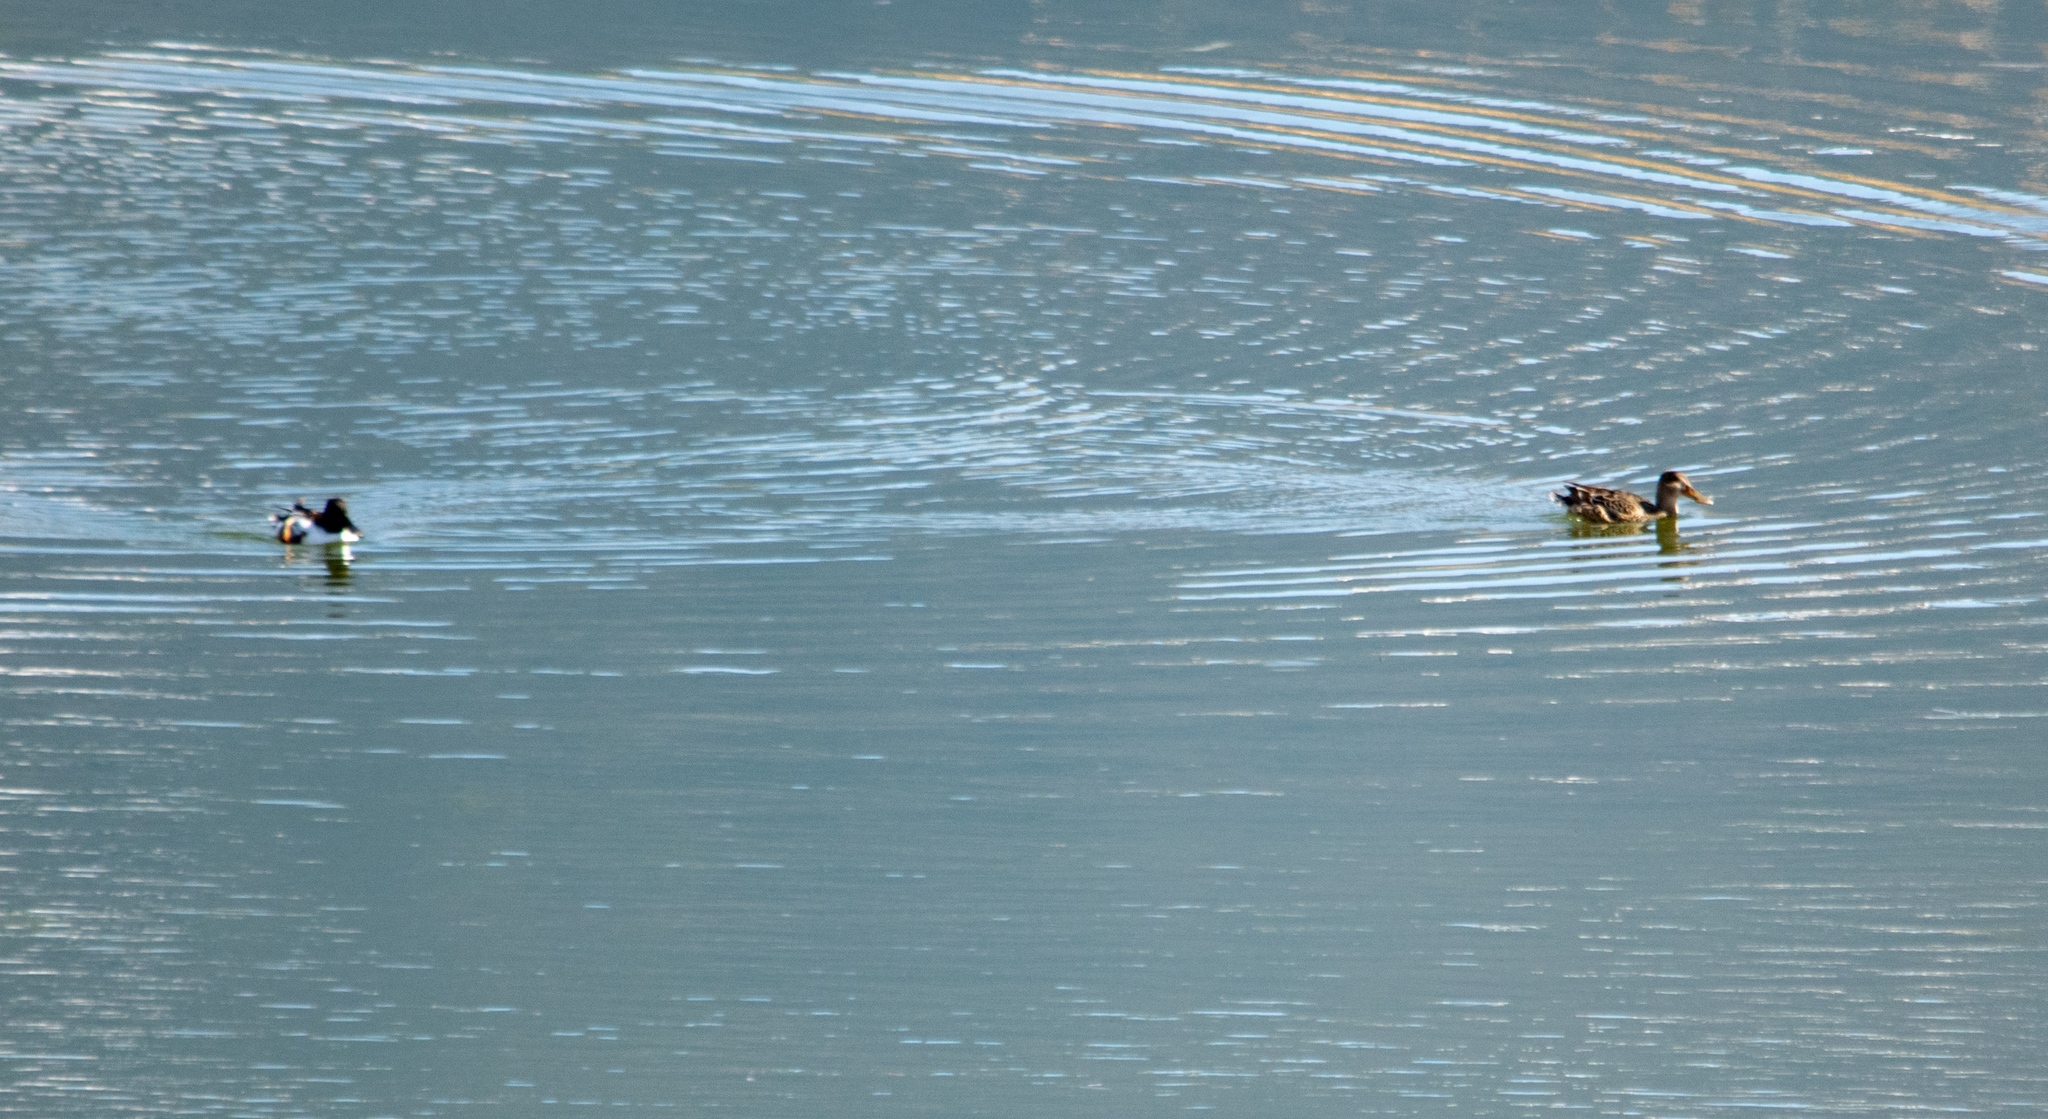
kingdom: Animalia
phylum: Chordata
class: Aves
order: Anseriformes
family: Anatidae
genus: Spatula
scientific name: Spatula clypeata
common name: Northern shoveler
